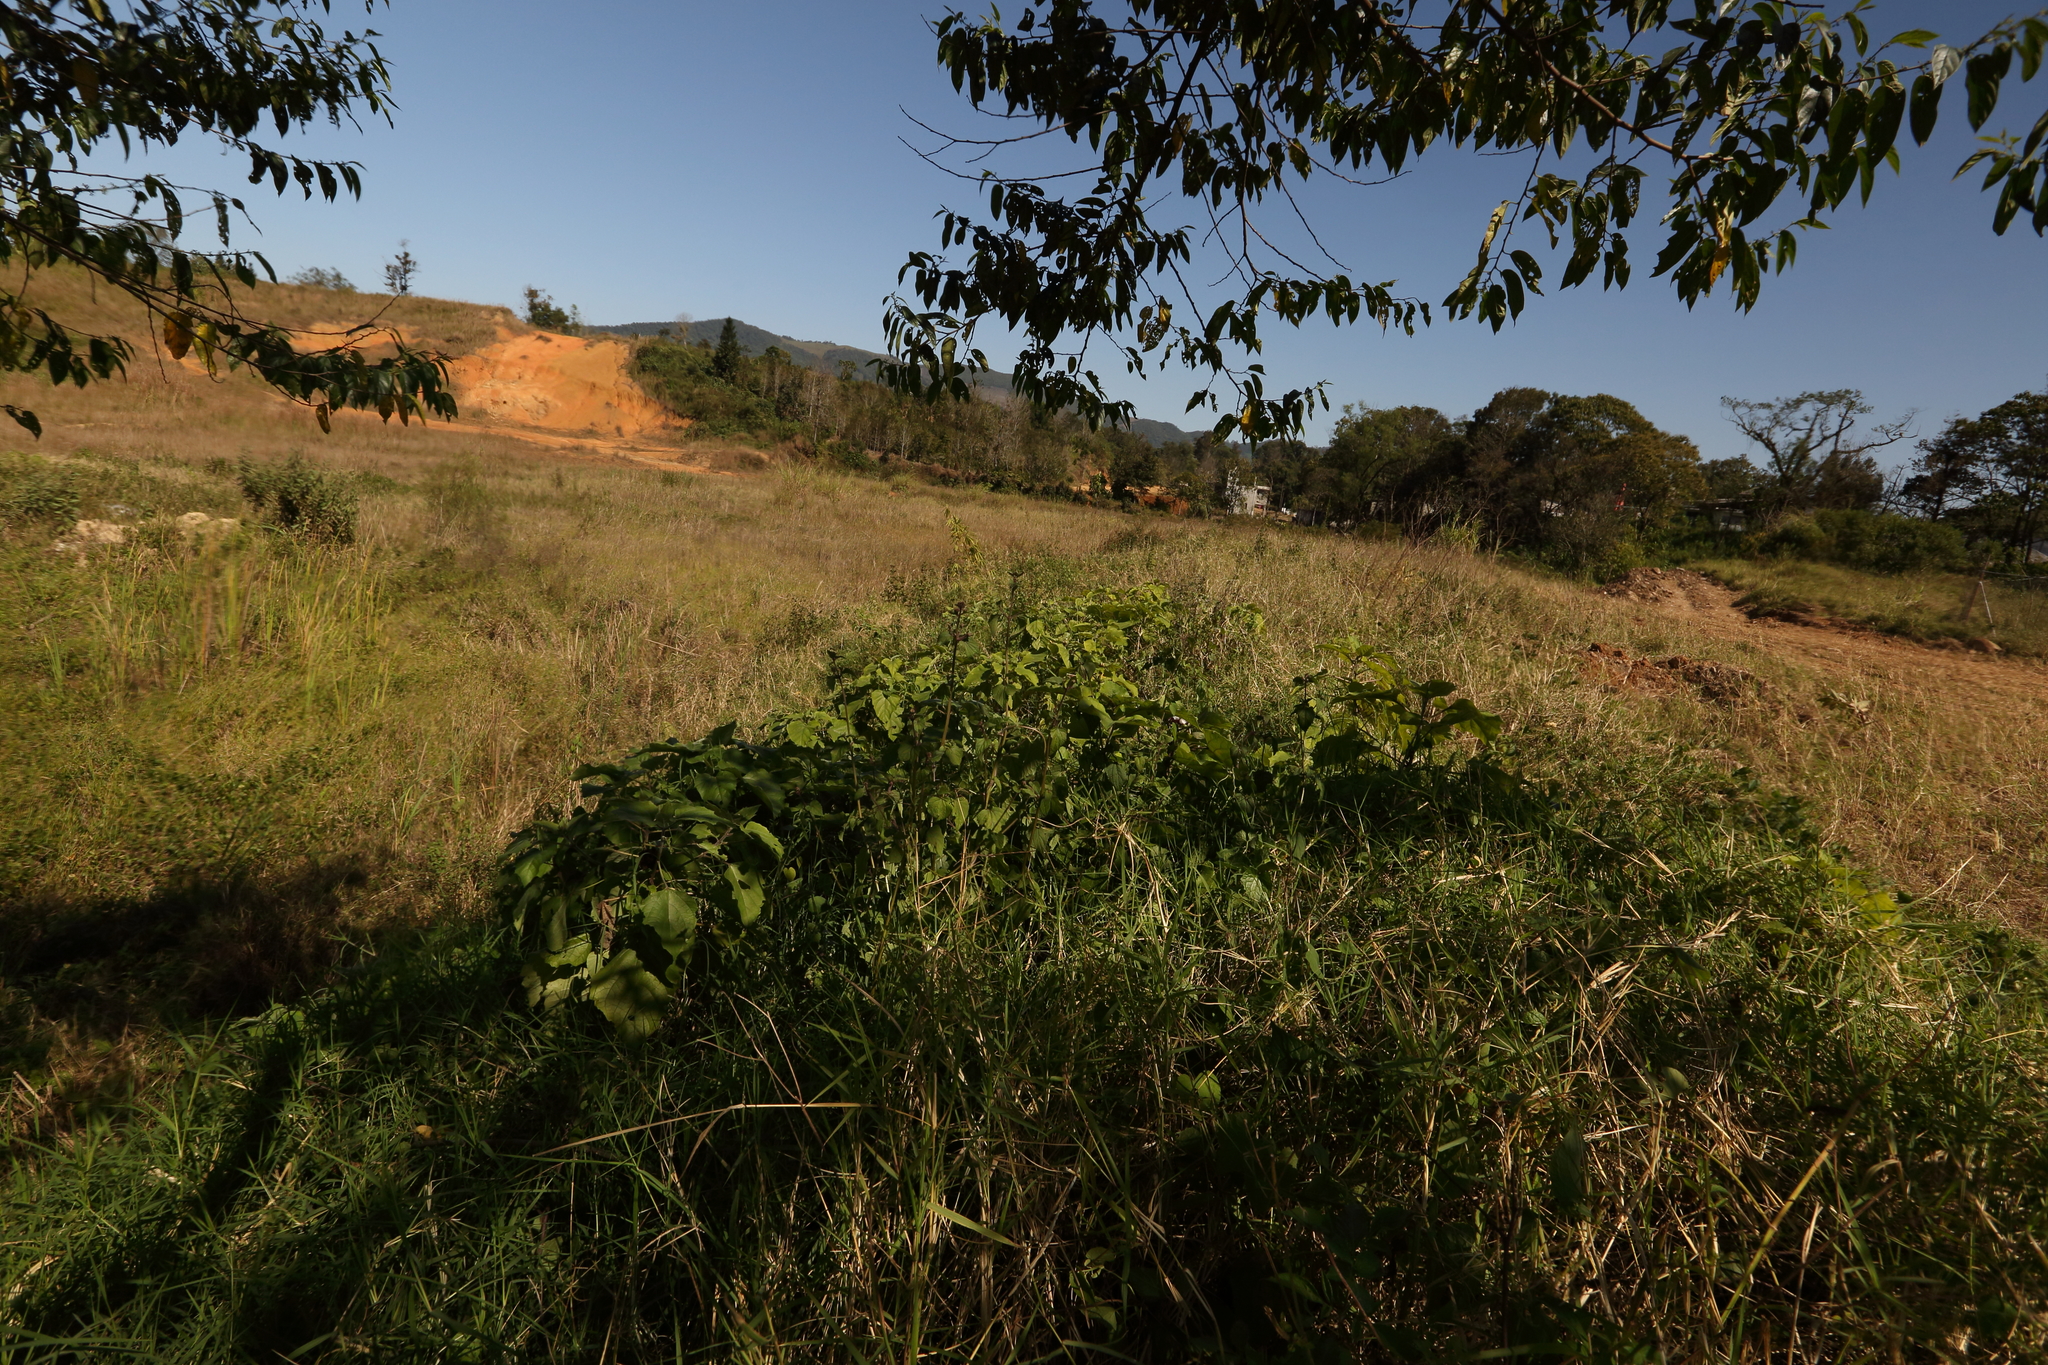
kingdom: Plantae
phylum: Tracheophyta
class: Magnoliopsida
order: Lamiales
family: Lamiaceae
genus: Clerodendrum
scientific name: Clerodendrum chinense
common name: Stickbush
